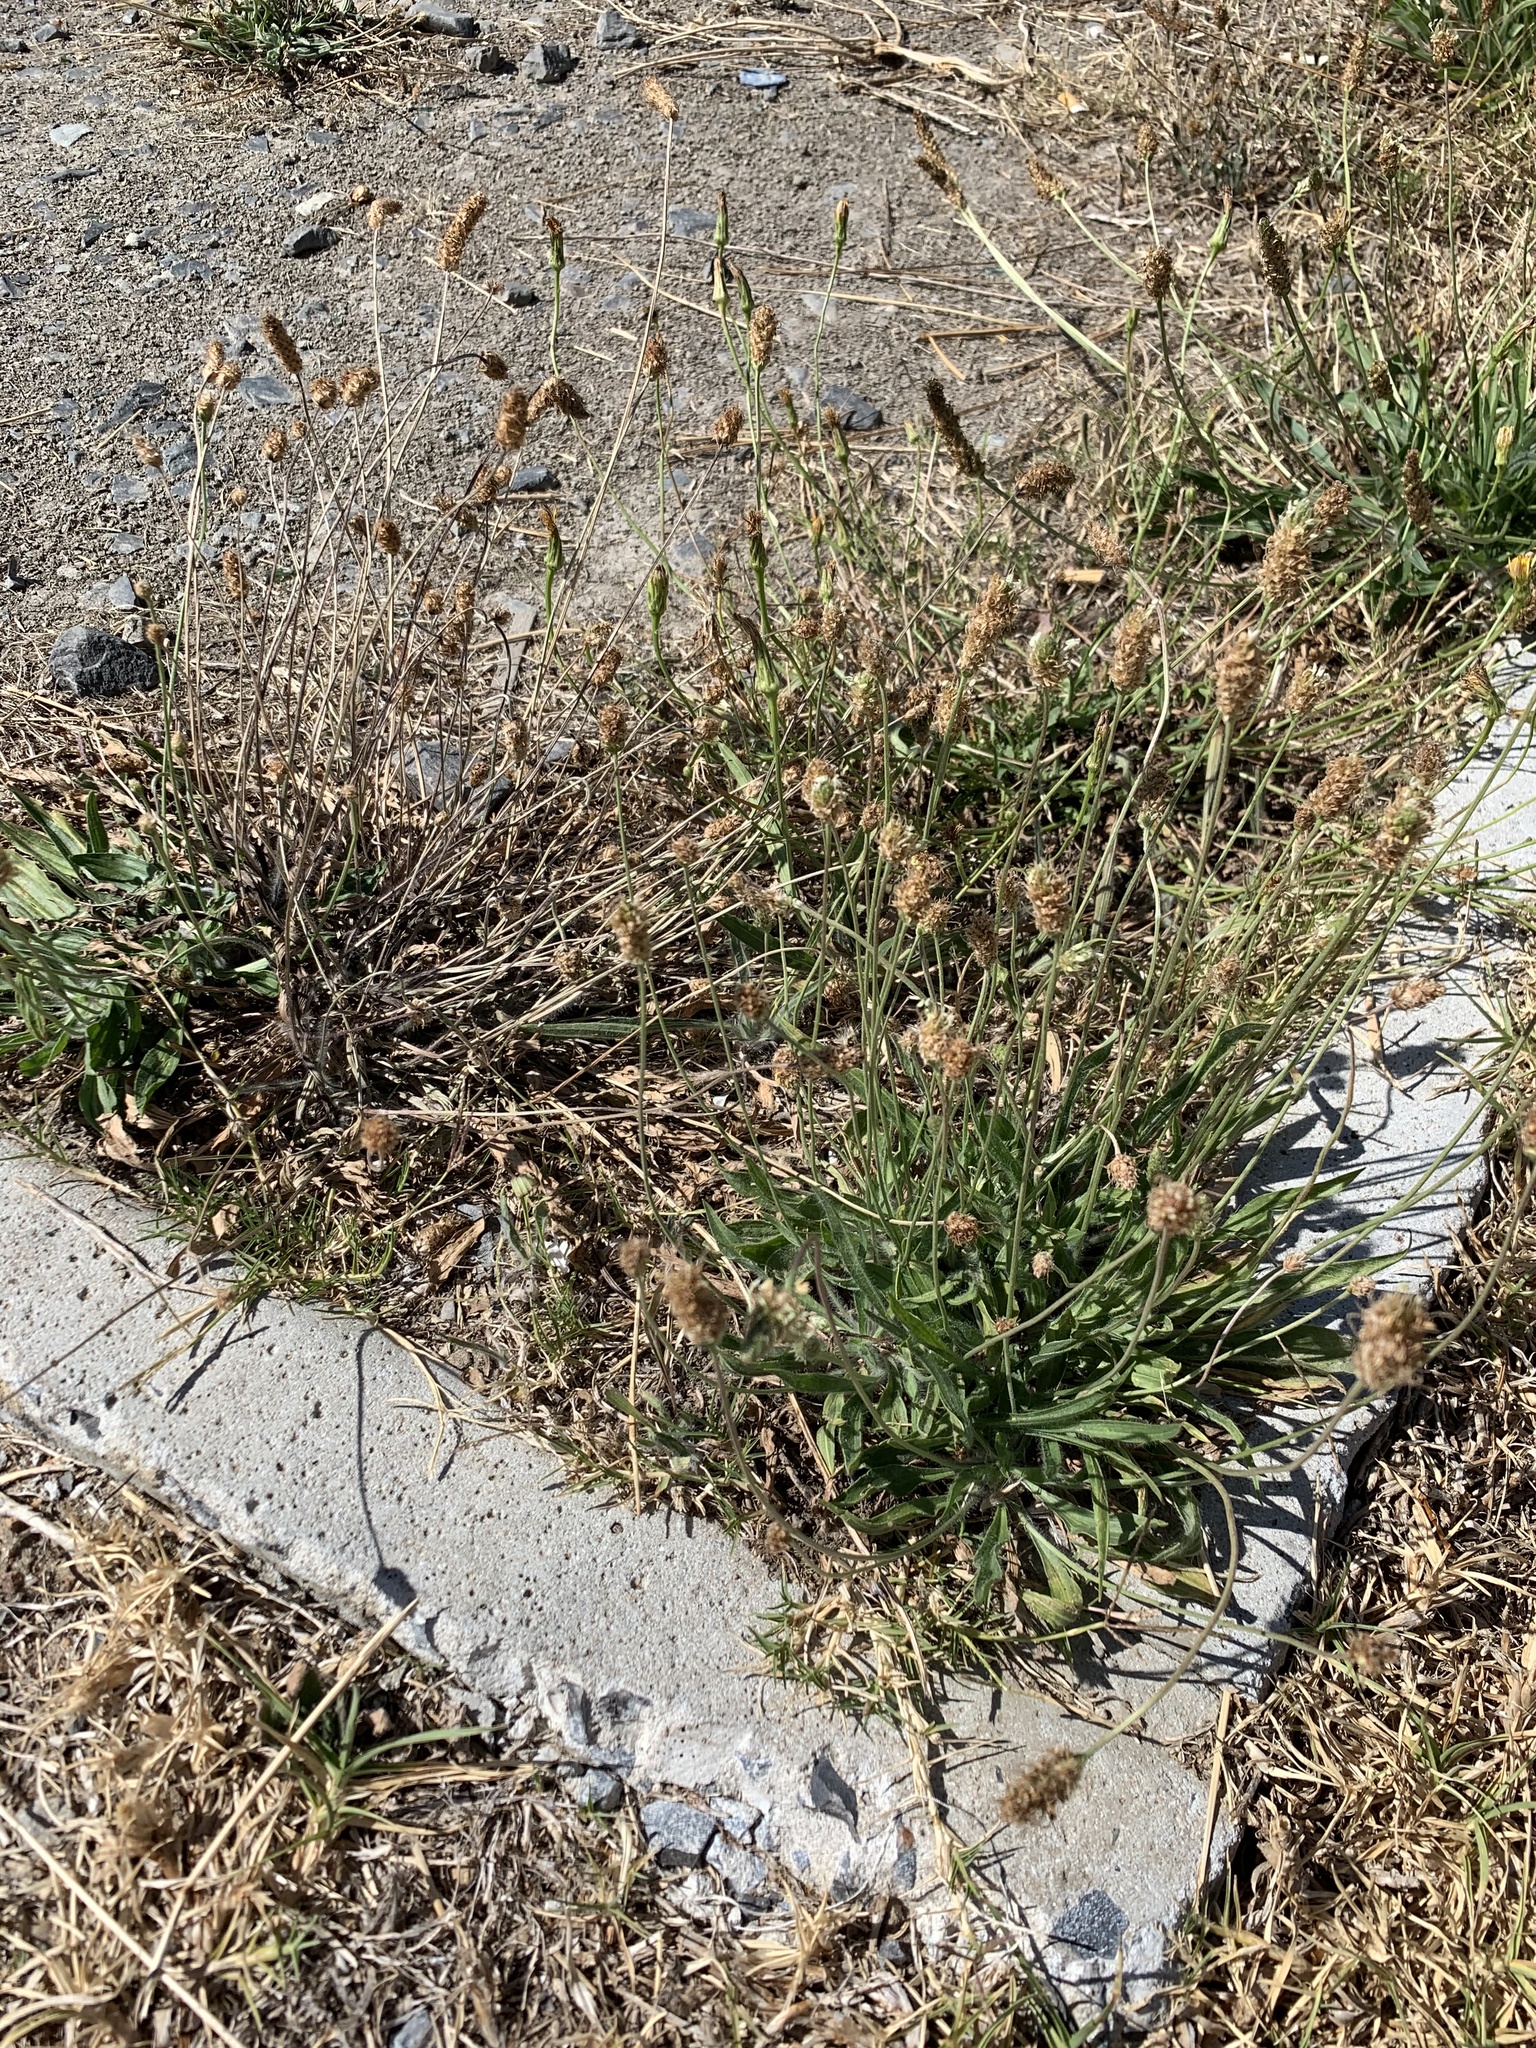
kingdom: Plantae
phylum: Tracheophyta
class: Magnoliopsida
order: Lamiales
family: Plantaginaceae
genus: Plantago
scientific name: Plantago lanceolata
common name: Ribwort plantain
